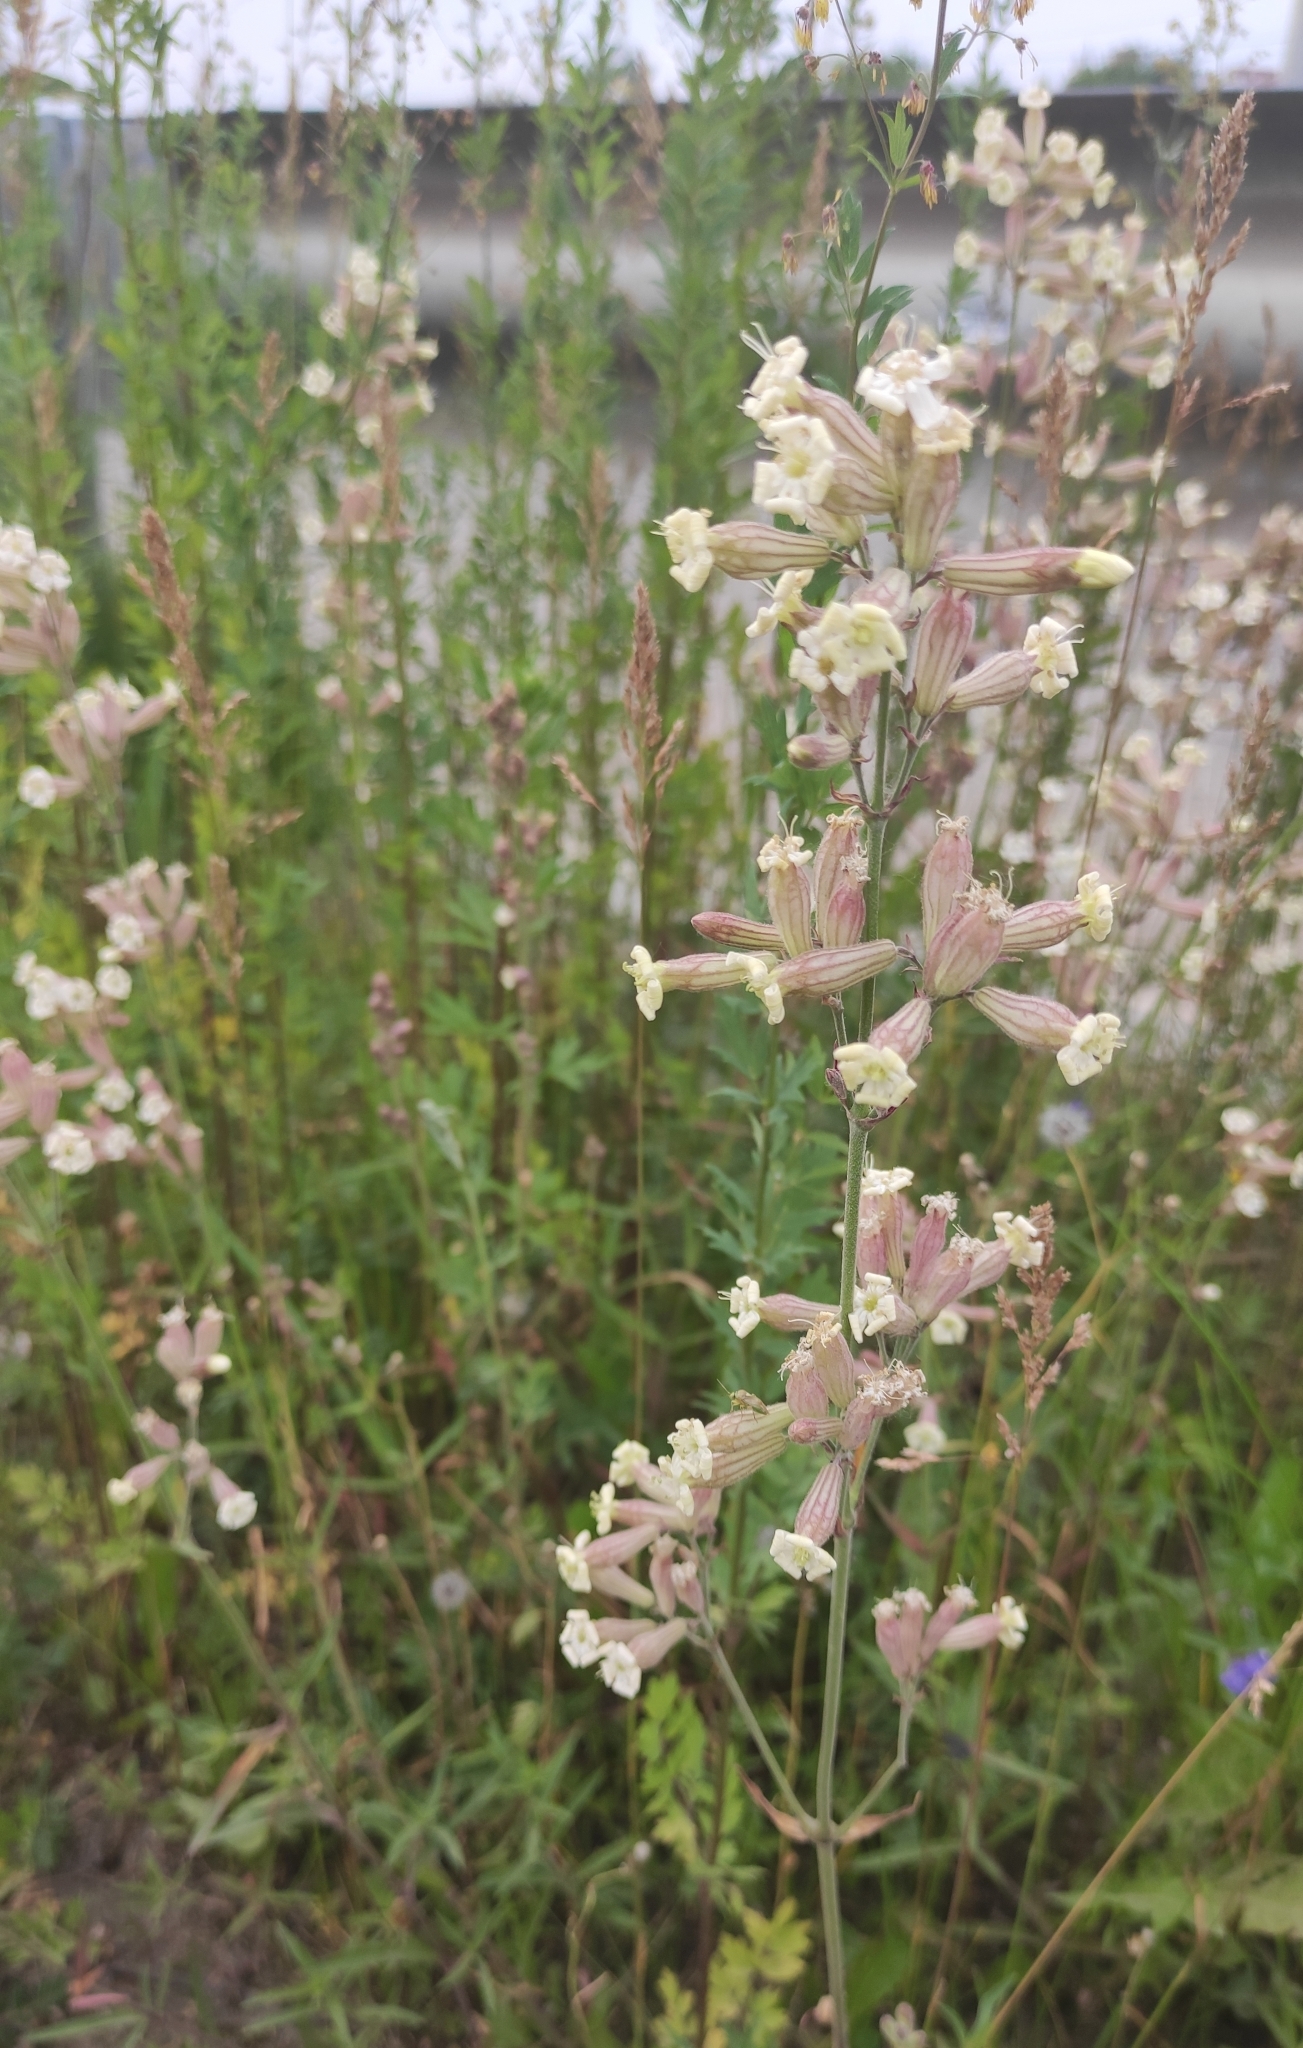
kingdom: Plantae
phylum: Tracheophyta
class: Magnoliopsida
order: Caryophyllales
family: Caryophyllaceae
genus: Silene
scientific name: Silene amoena
